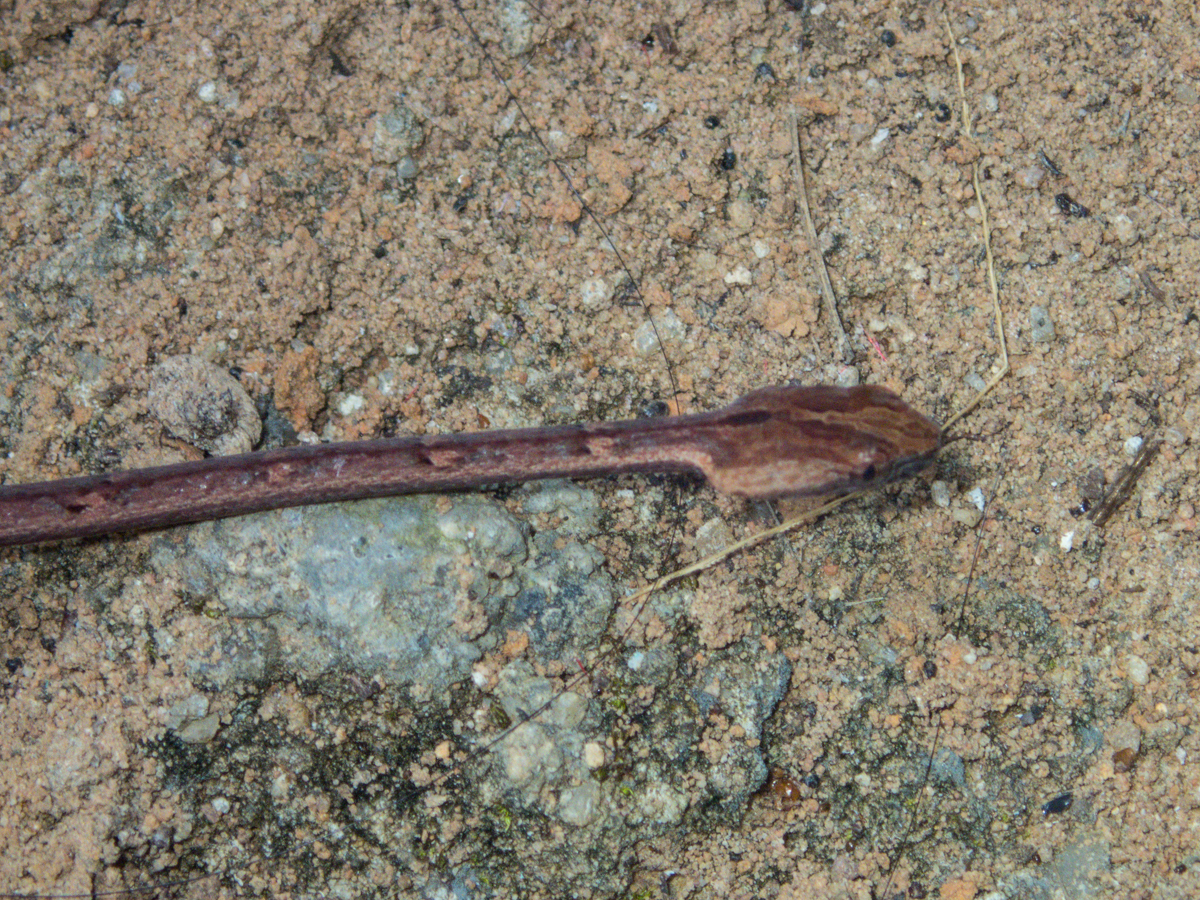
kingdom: Animalia
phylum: Chordata
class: Squamata
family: Pseudaspididae
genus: Psammodynastes
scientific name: Psammodynastes pulverulentus
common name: Common mock viper
